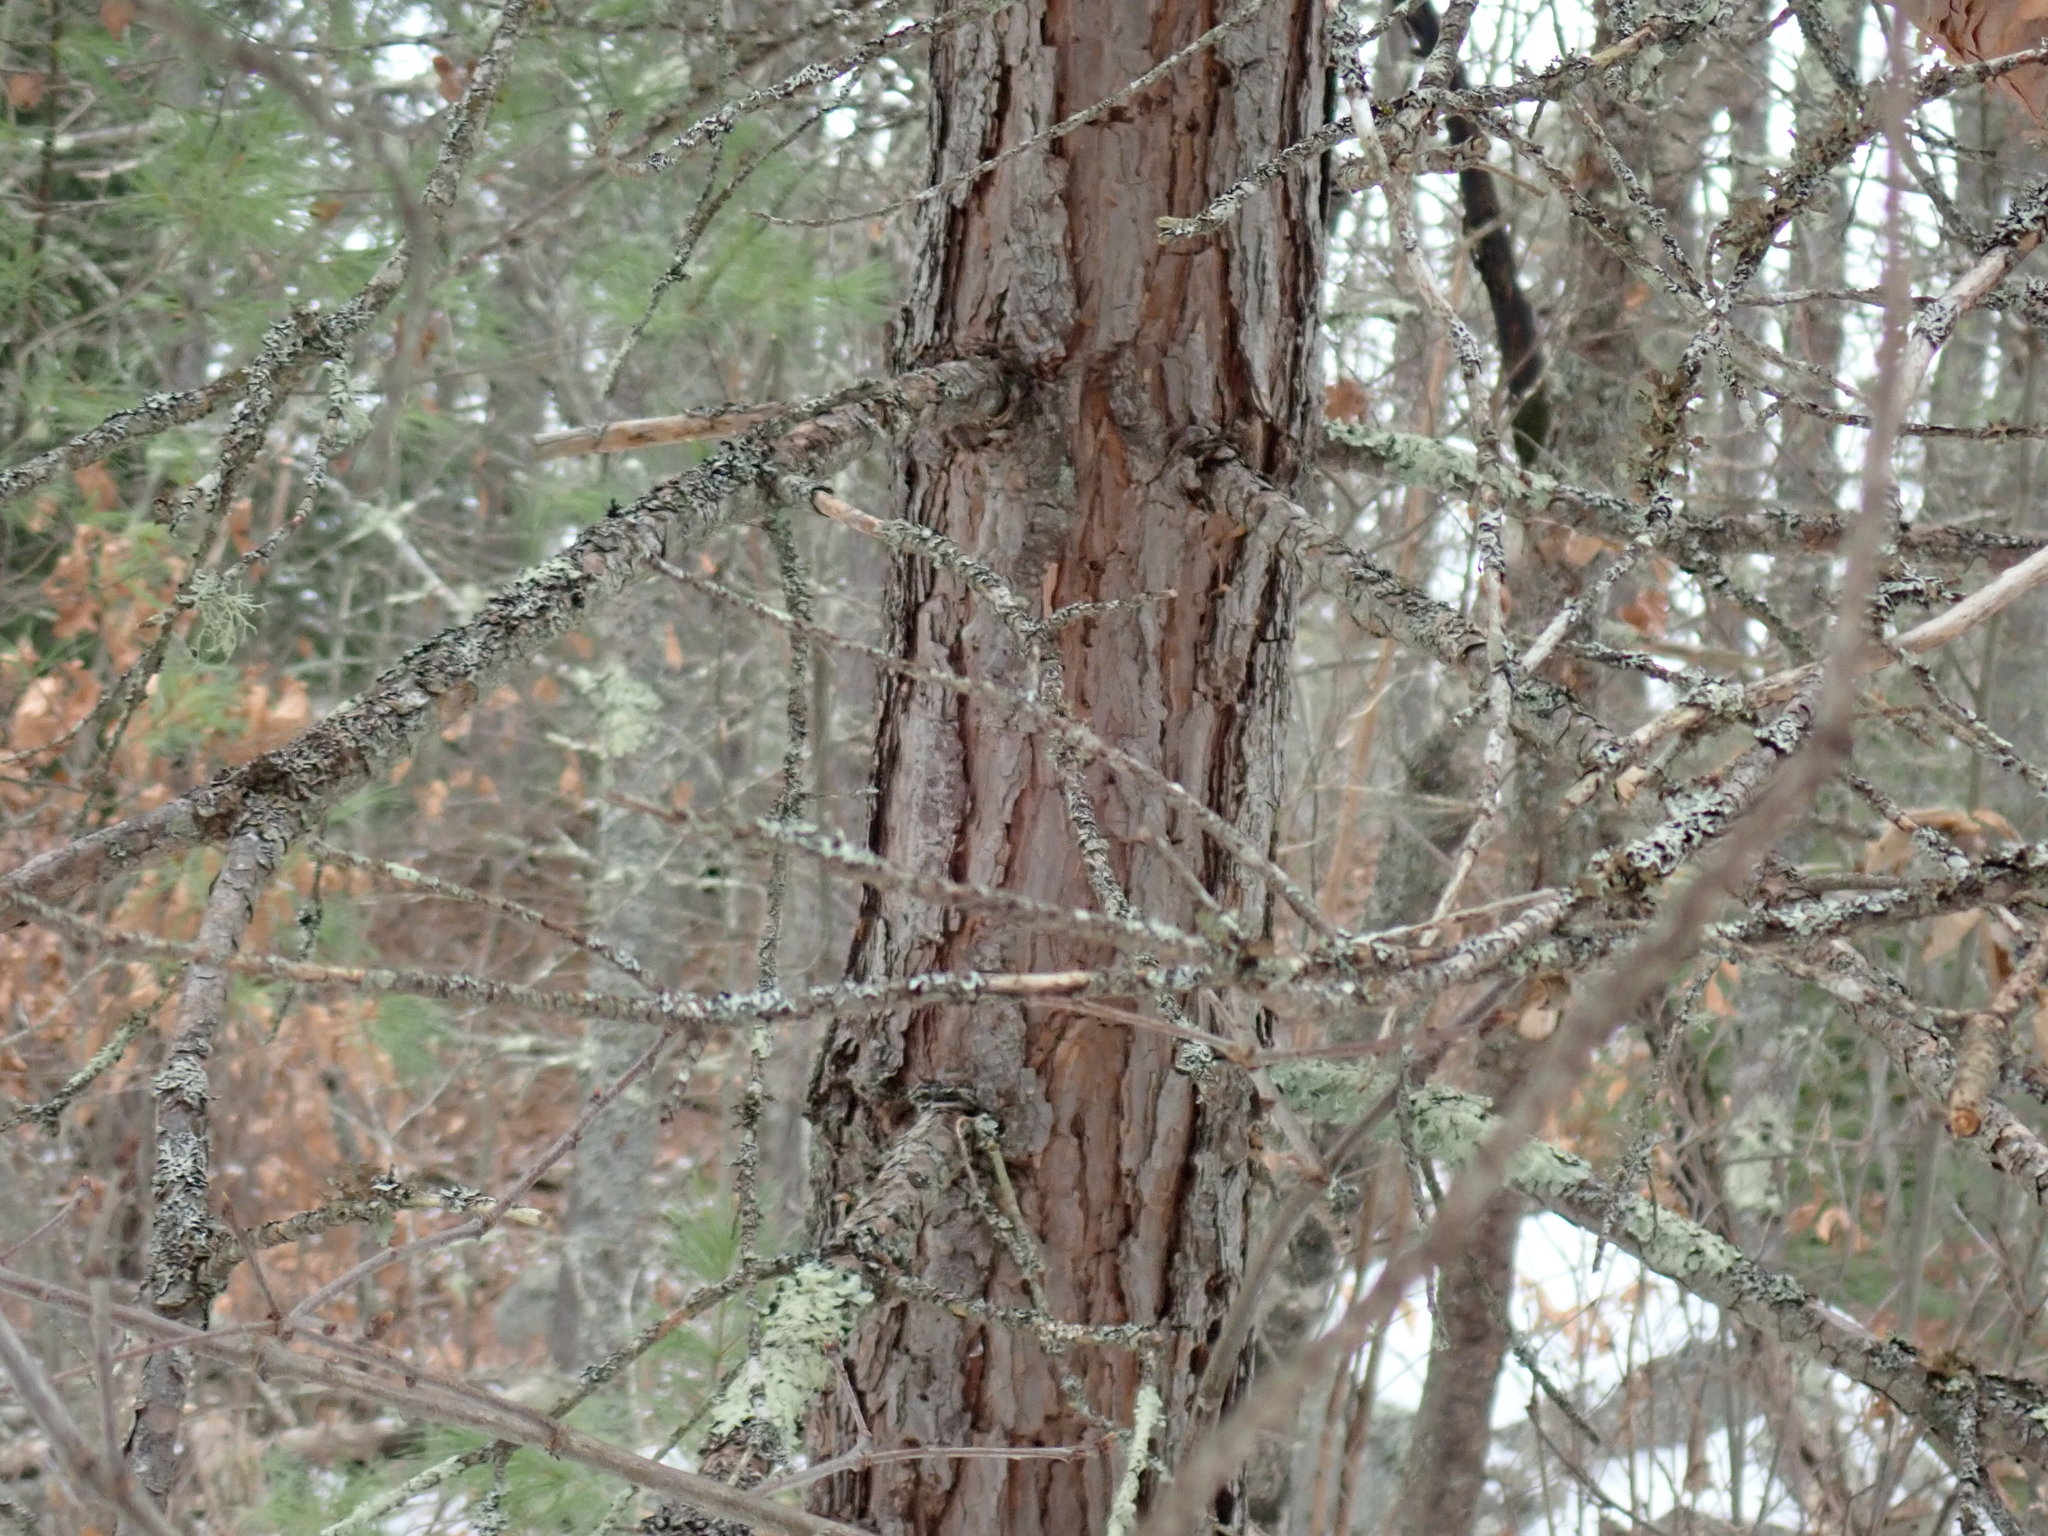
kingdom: Plantae
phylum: Tracheophyta
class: Pinopsida
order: Pinales
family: Pinaceae
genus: Pinus
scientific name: Pinus sylvestris
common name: Scots pine
